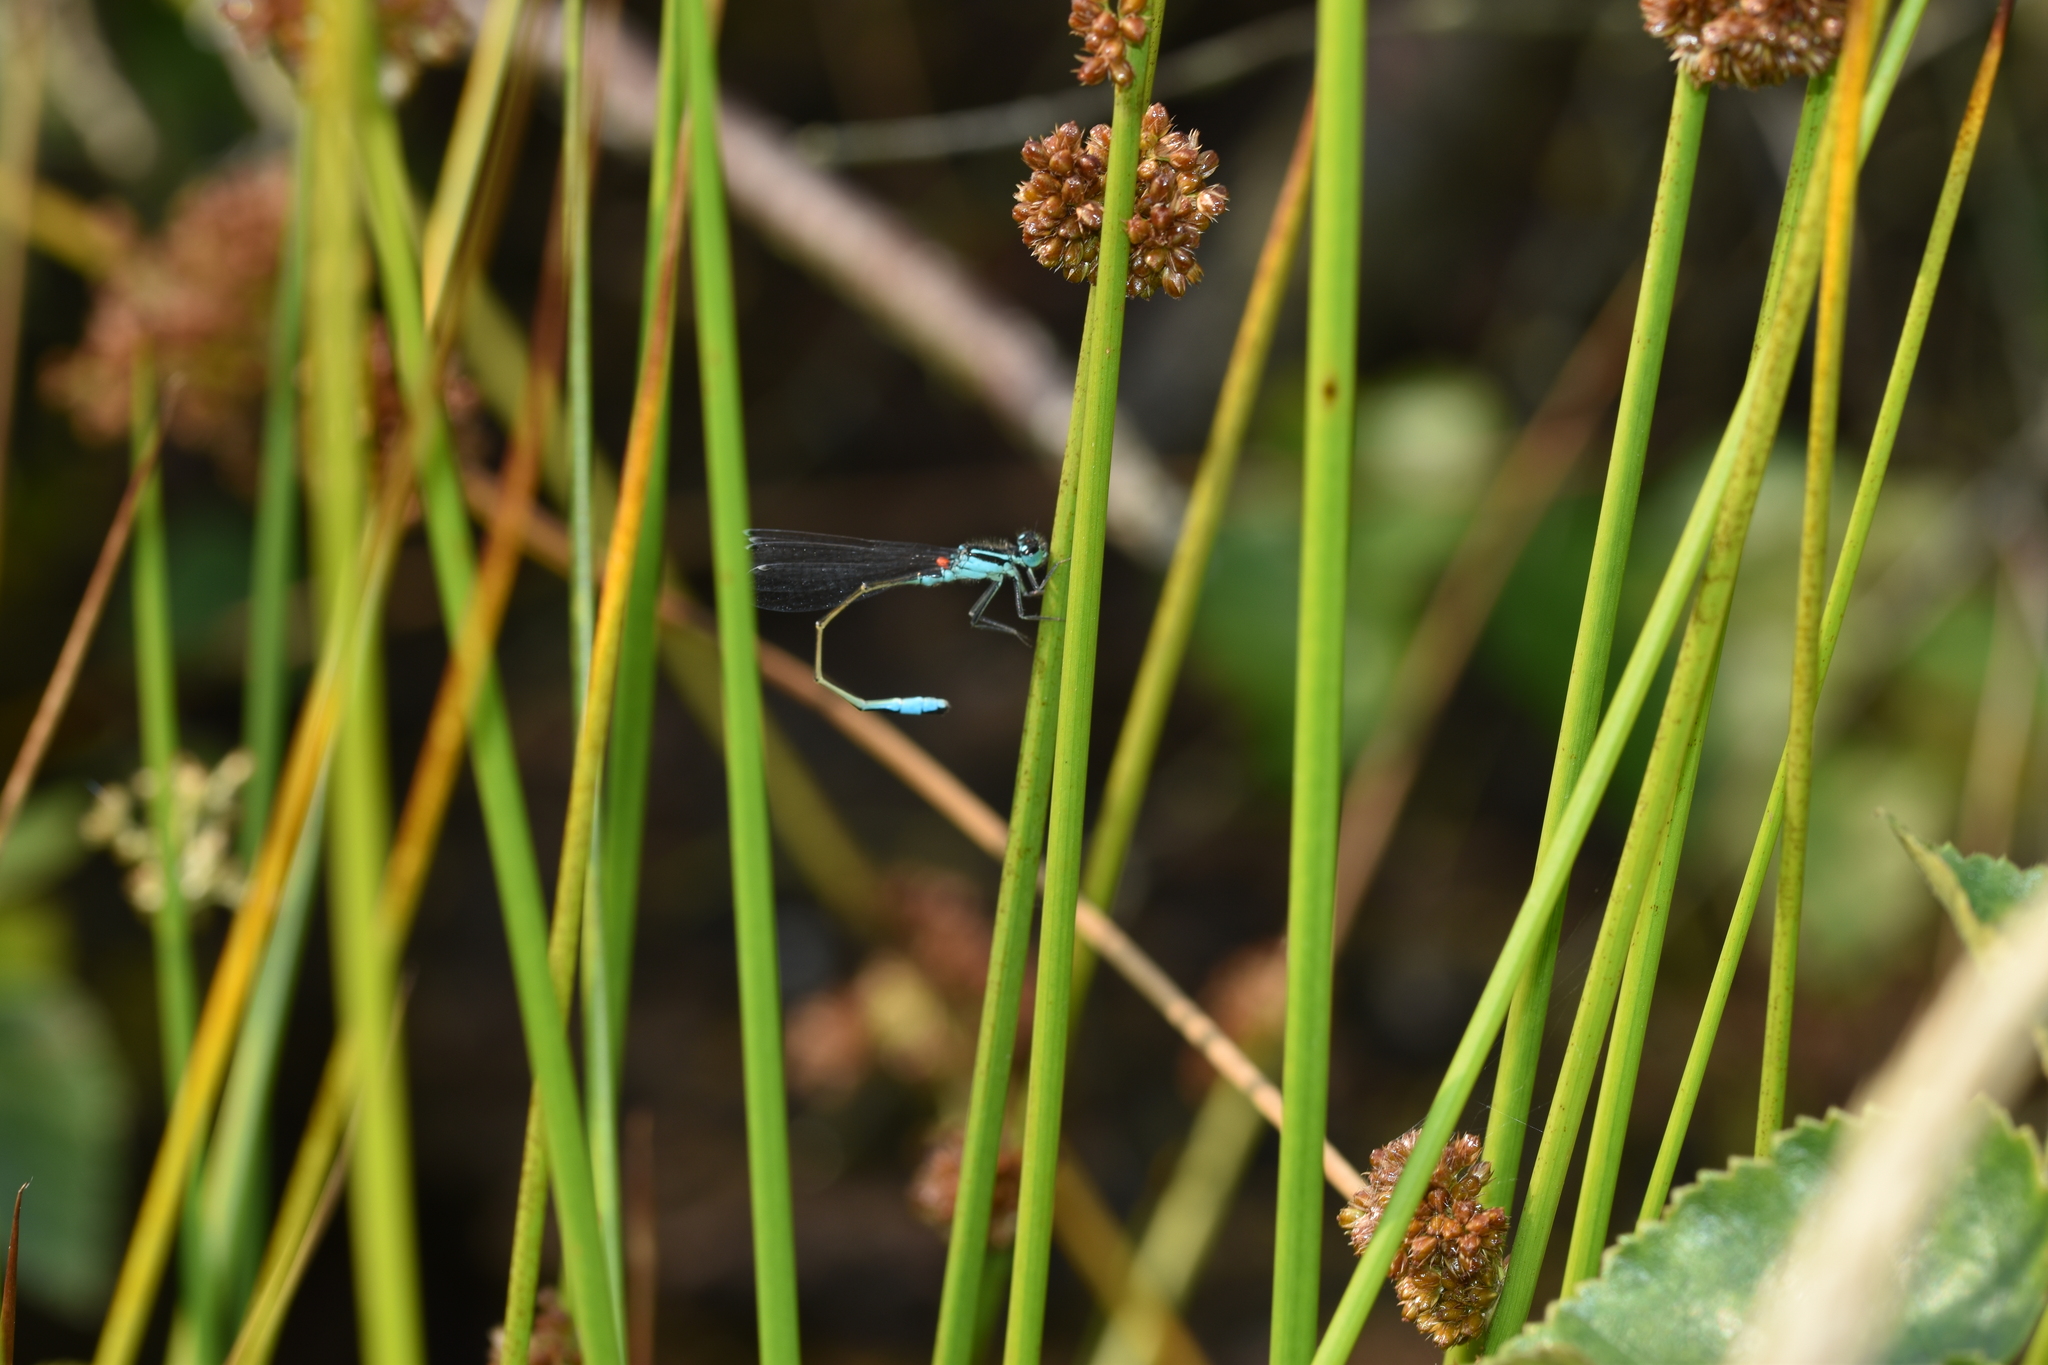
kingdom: Animalia
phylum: Arthropoda
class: Insecta
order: Odonata
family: Coenagrionidae
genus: Ischnura
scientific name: Ischnura elegans
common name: Blue-tailed damselfly
